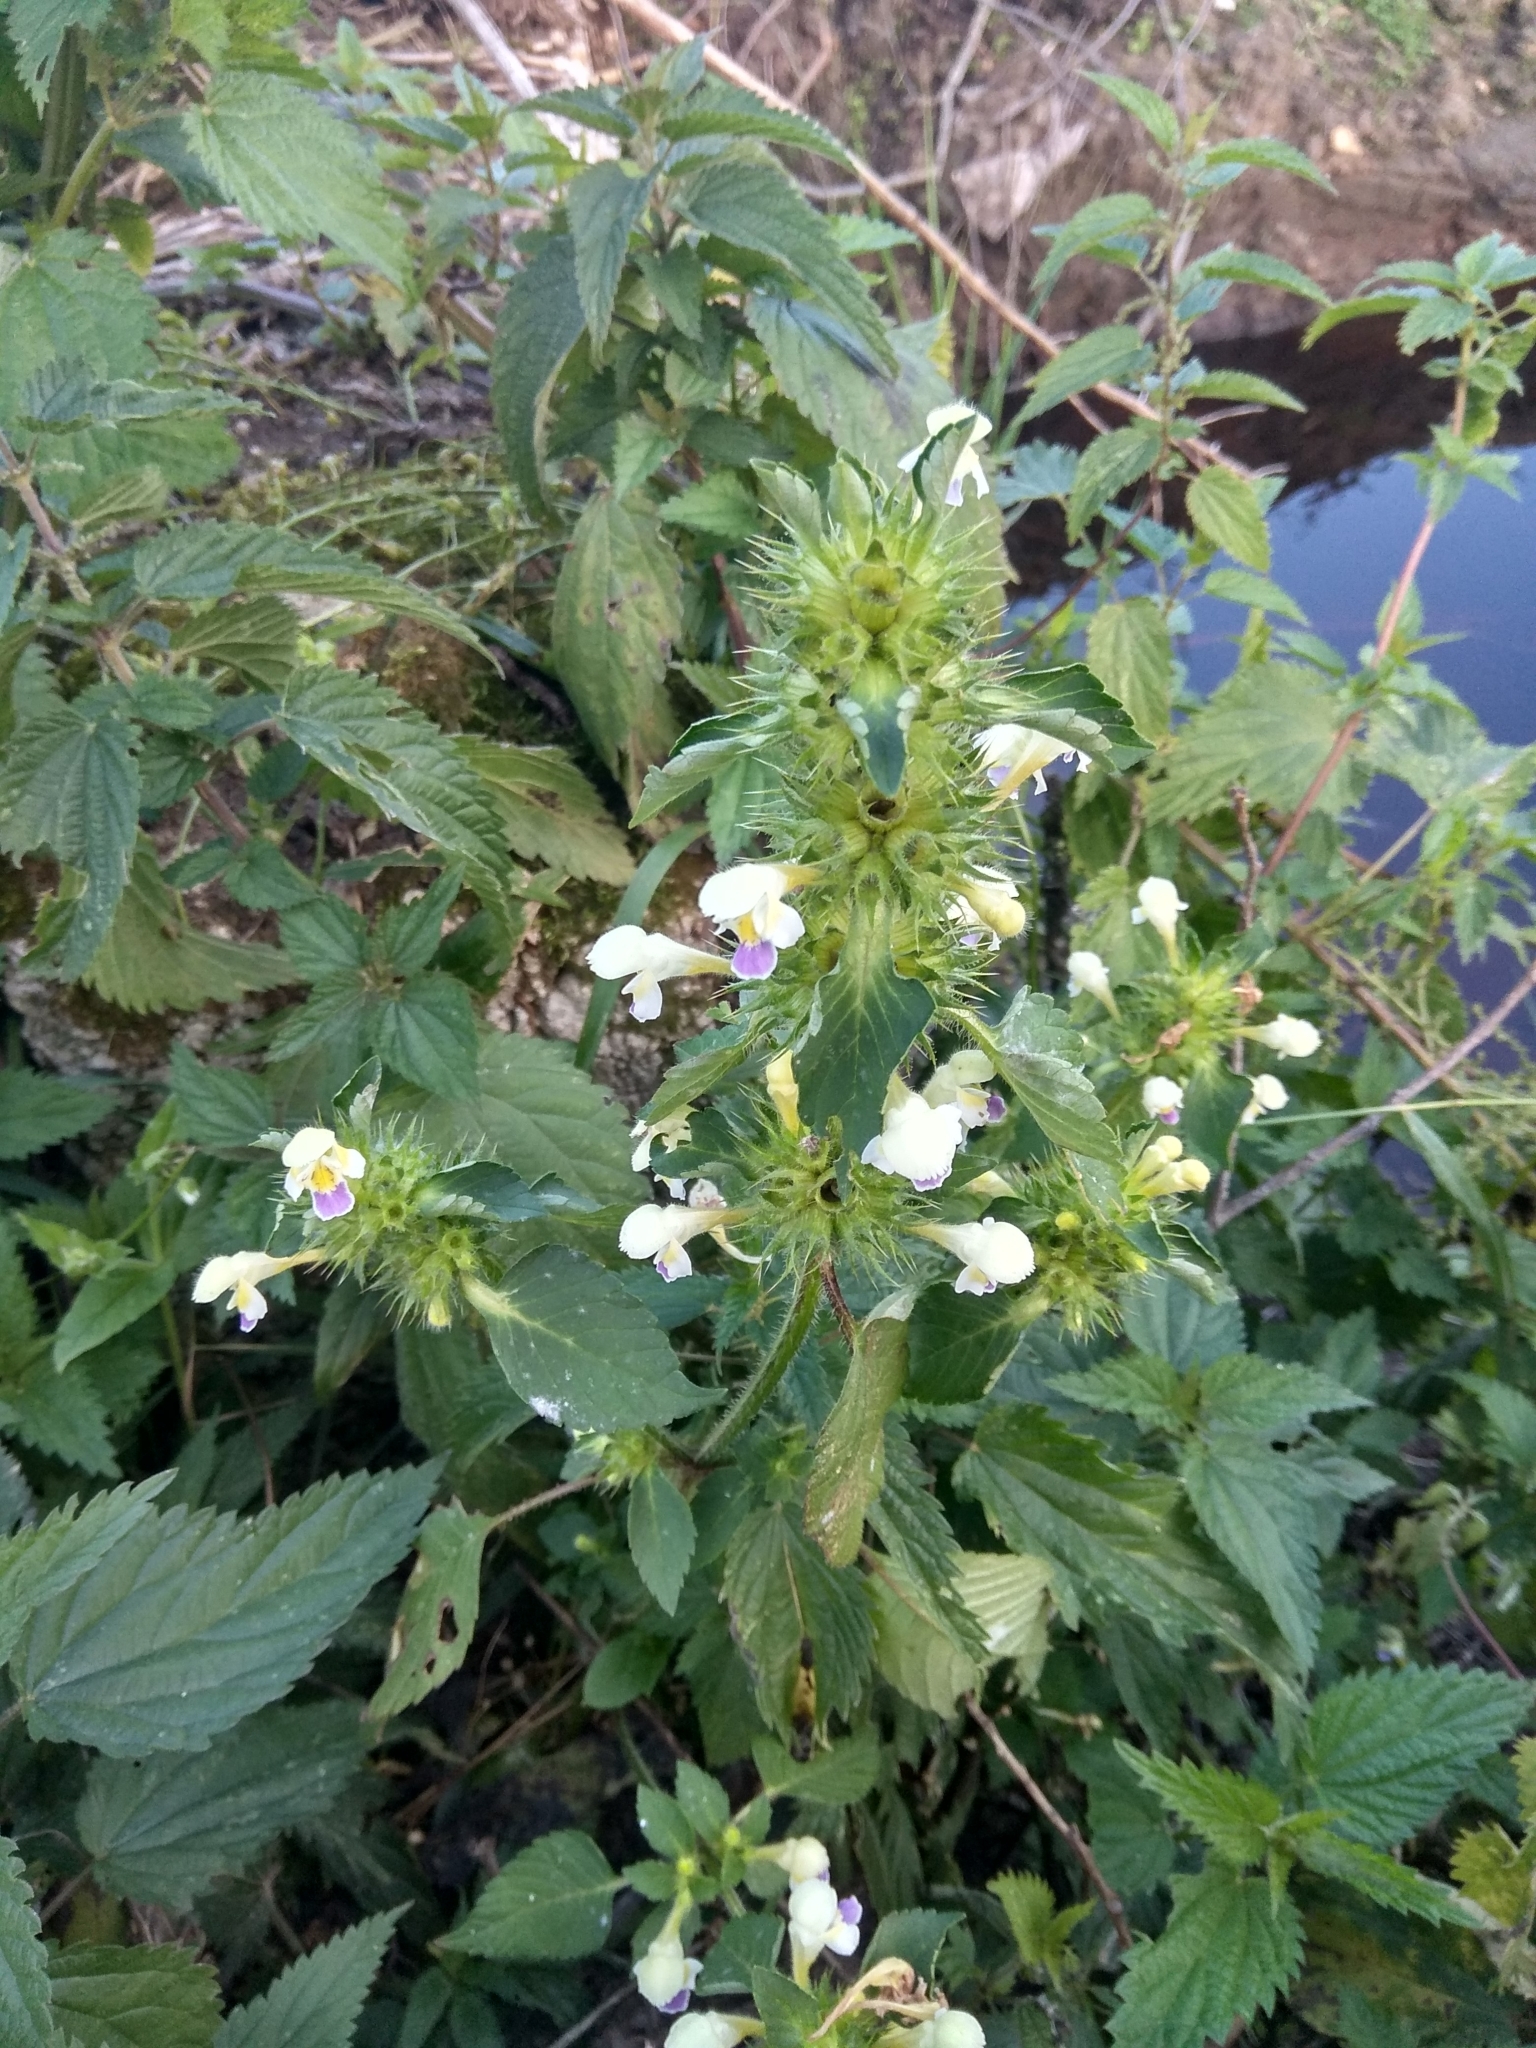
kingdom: Plantae
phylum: Tracheophyta
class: Magnoliopsida
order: Lamiales
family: Lamiaceae
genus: Galeopsis
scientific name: Galeopsis speciosa
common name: Large-flowered hemp-nettle
